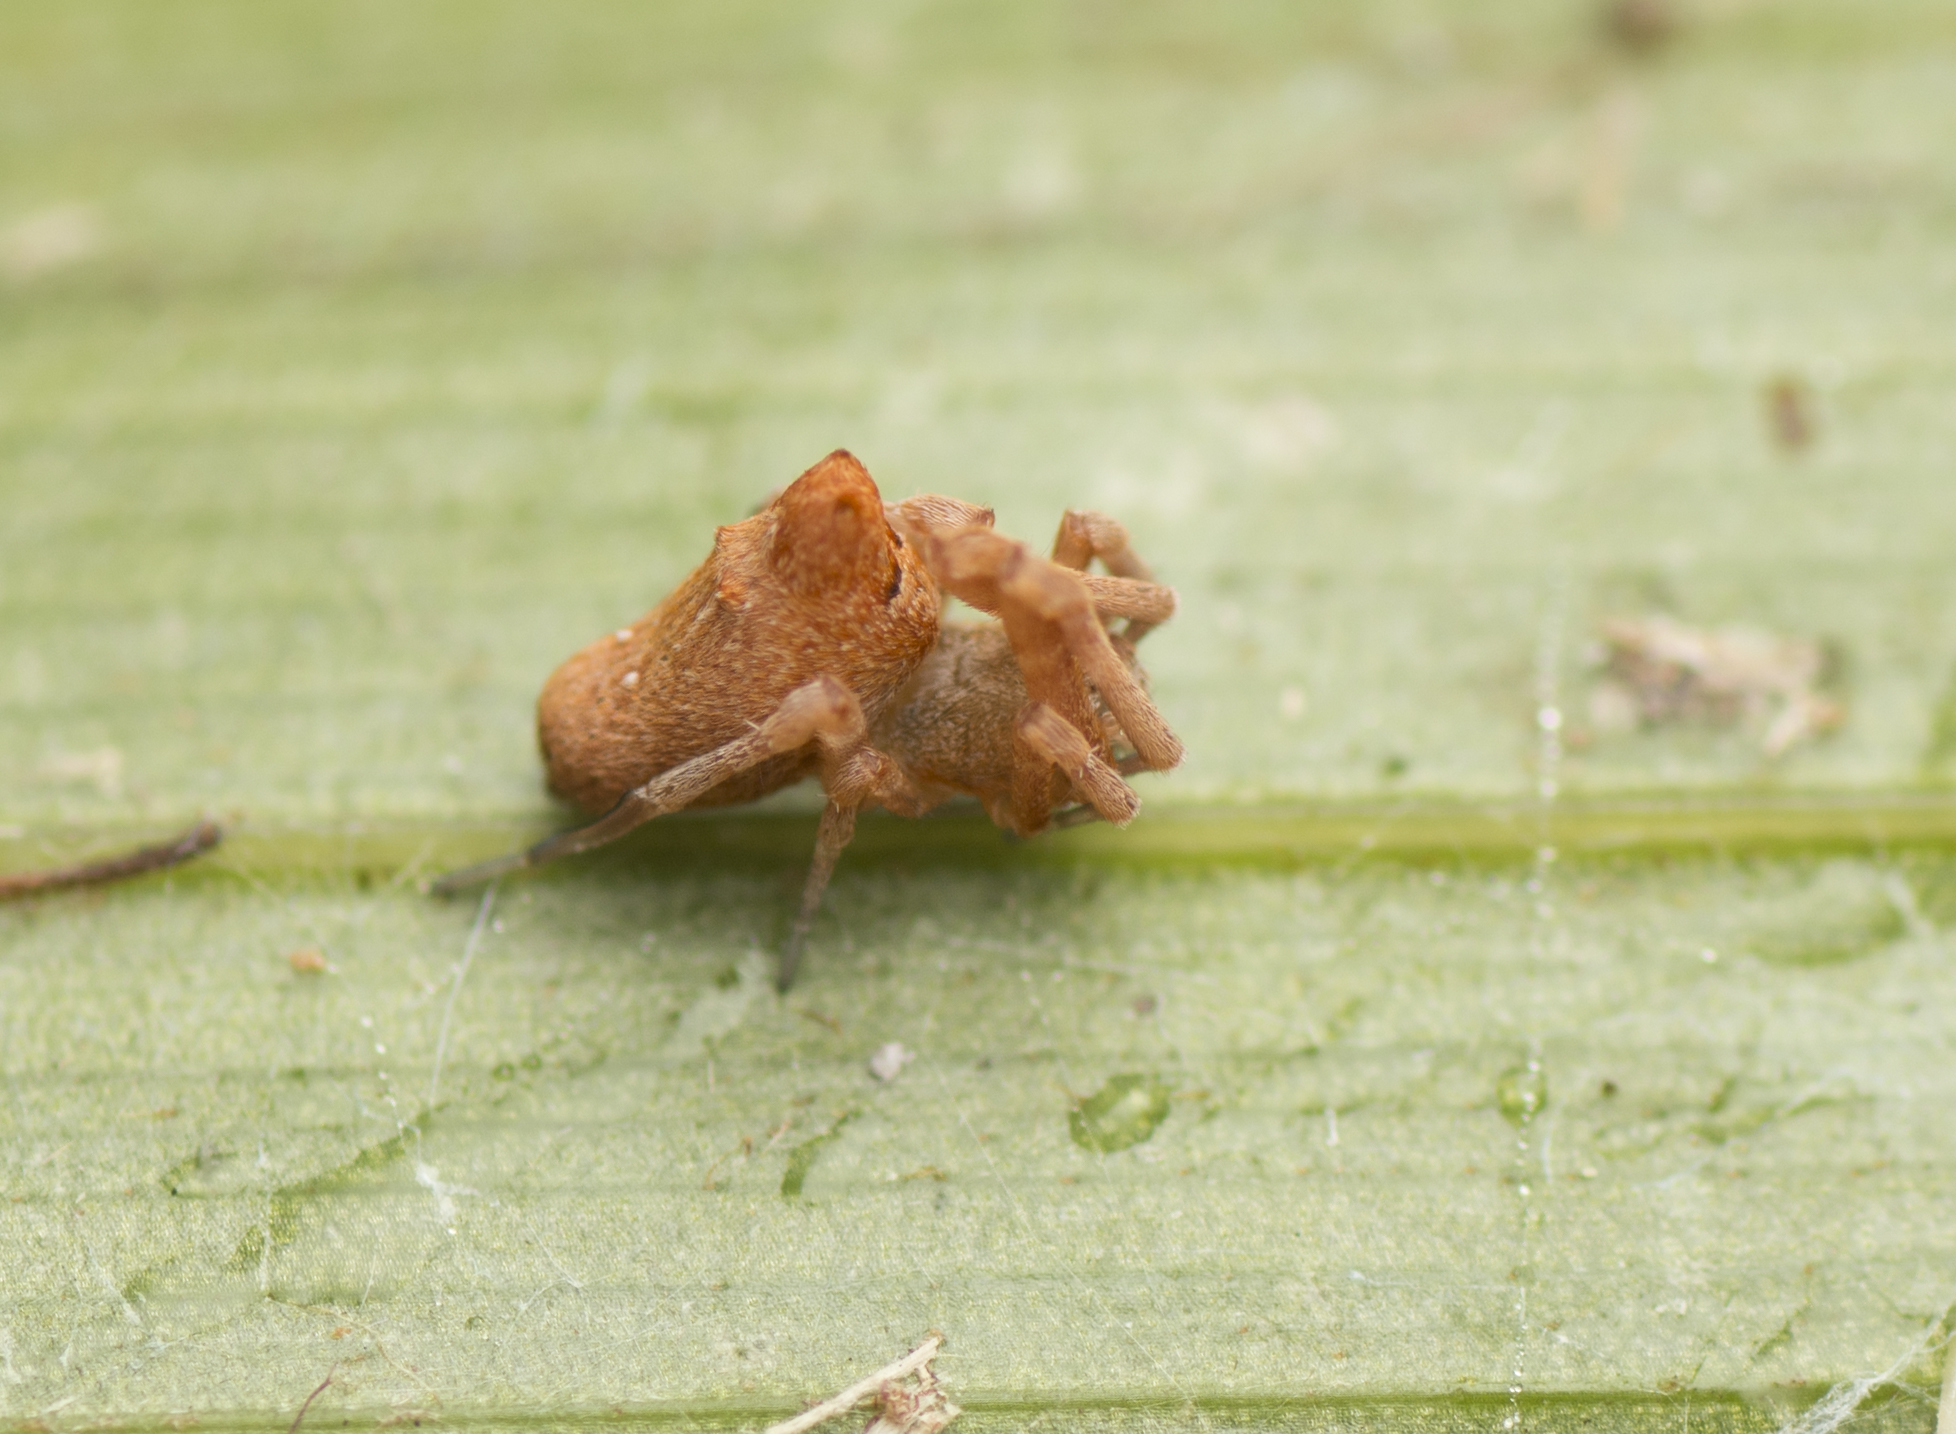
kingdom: Animalia
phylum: Arthropoda
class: Arachnida
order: Araneae
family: Uloboridae
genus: Philoponella
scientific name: Philoponella congregabilis
